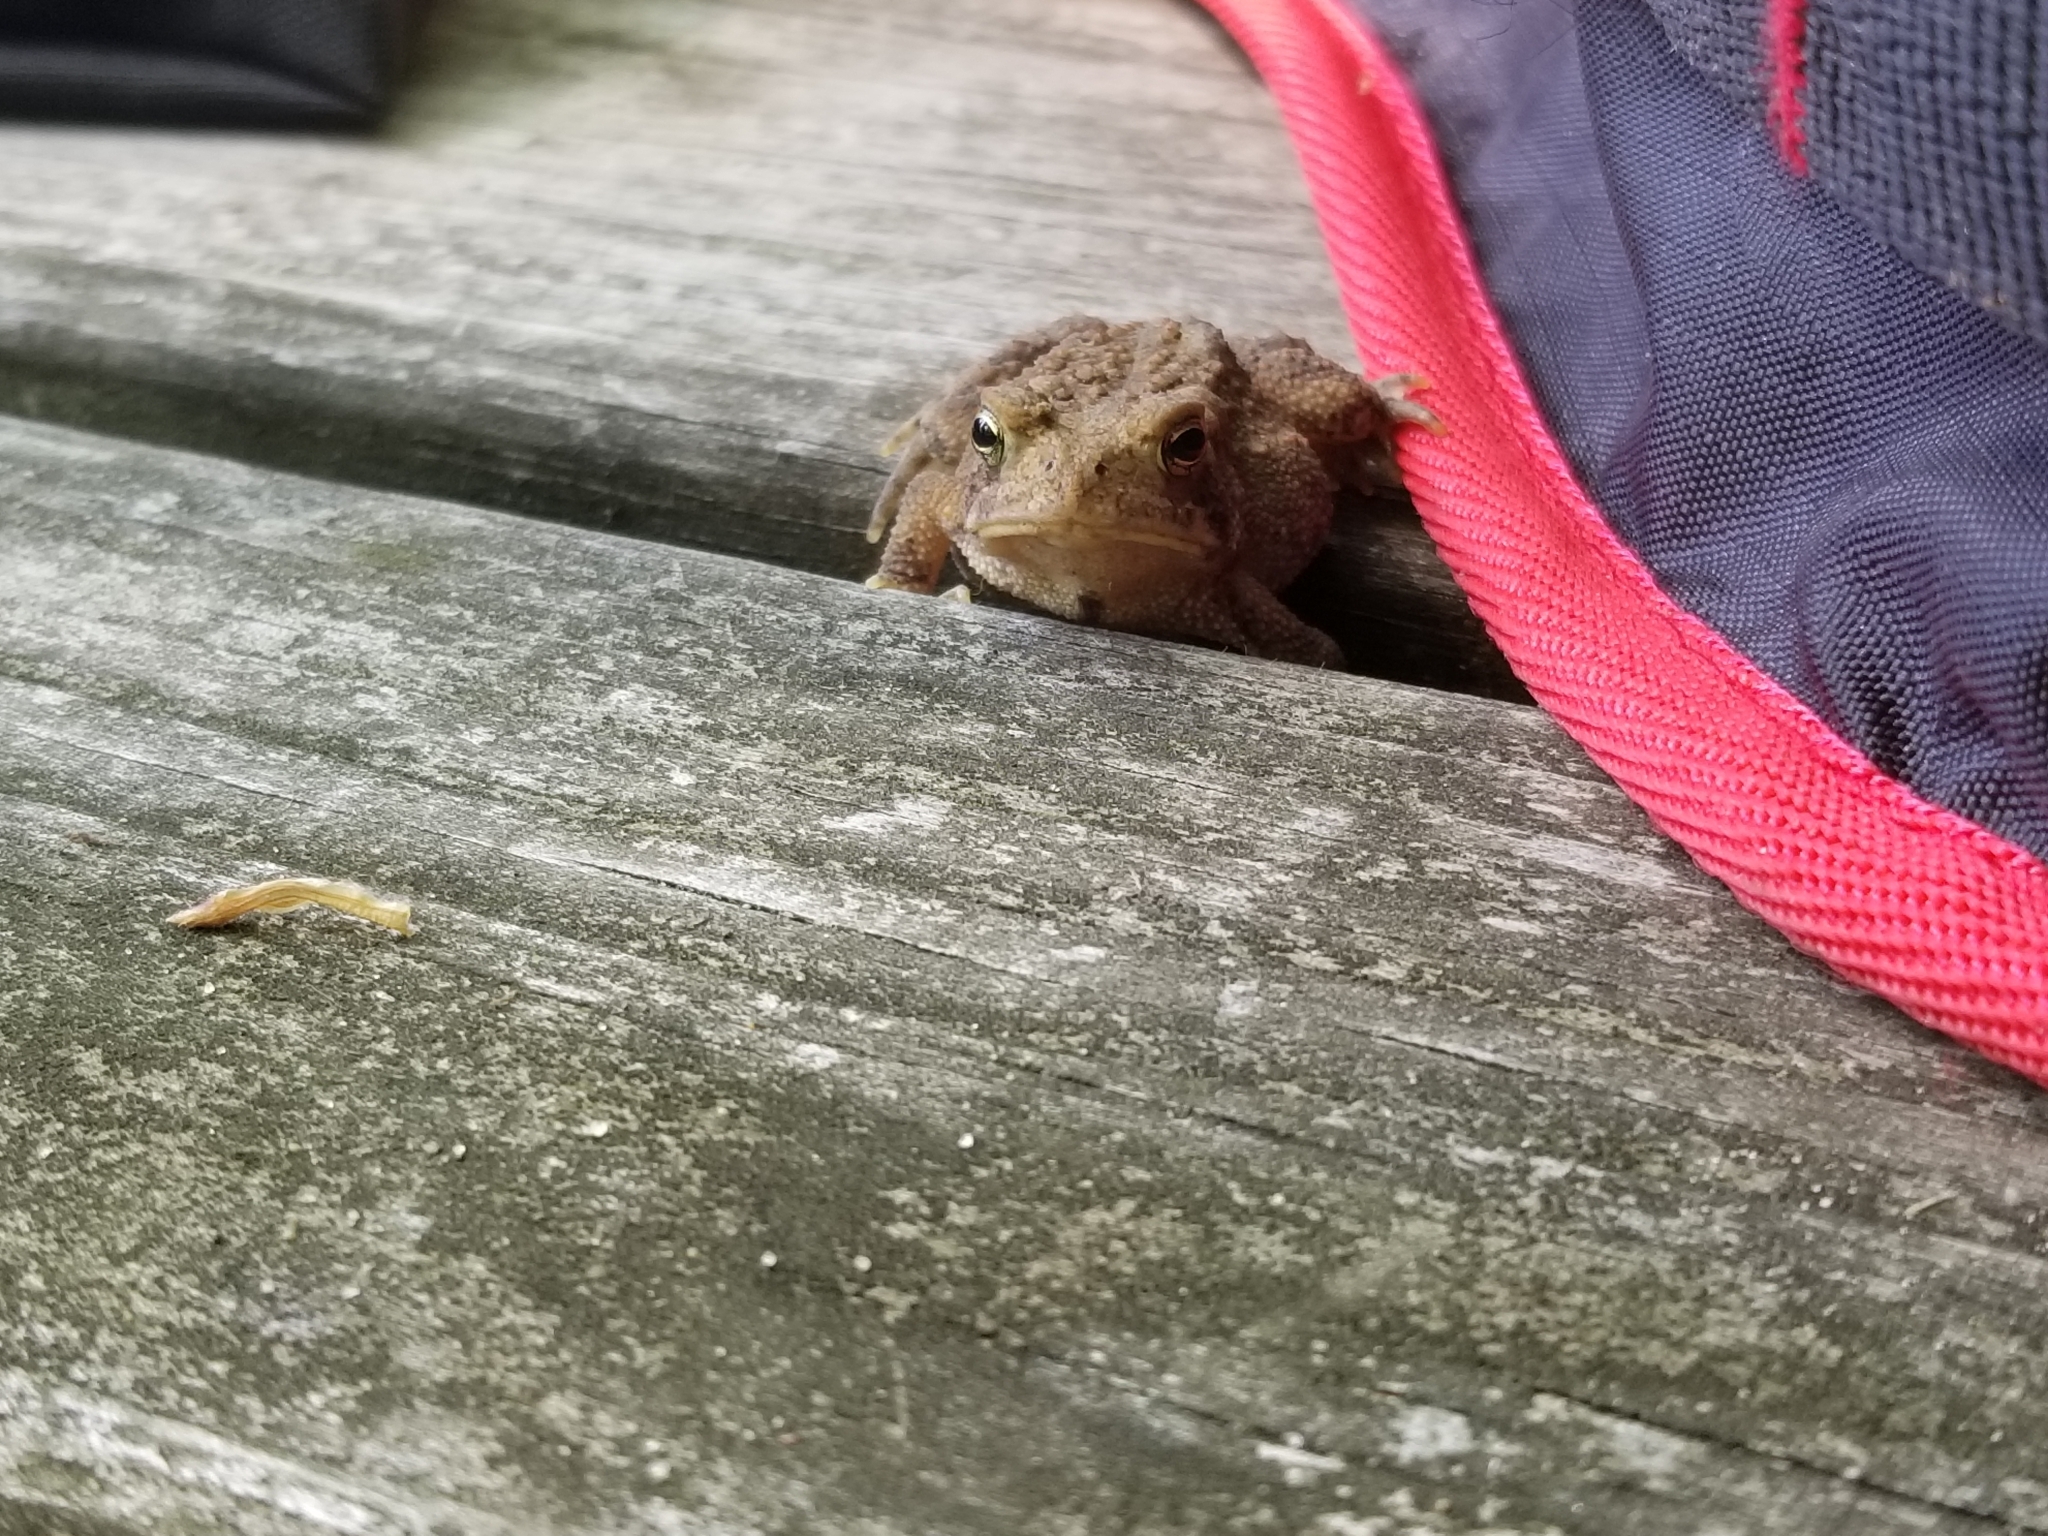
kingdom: Animalia
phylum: Chordata
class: Amphibia
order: Anura
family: Bufonidae
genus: Anaxyrus
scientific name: Anaxyrus americanus
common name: American toad
